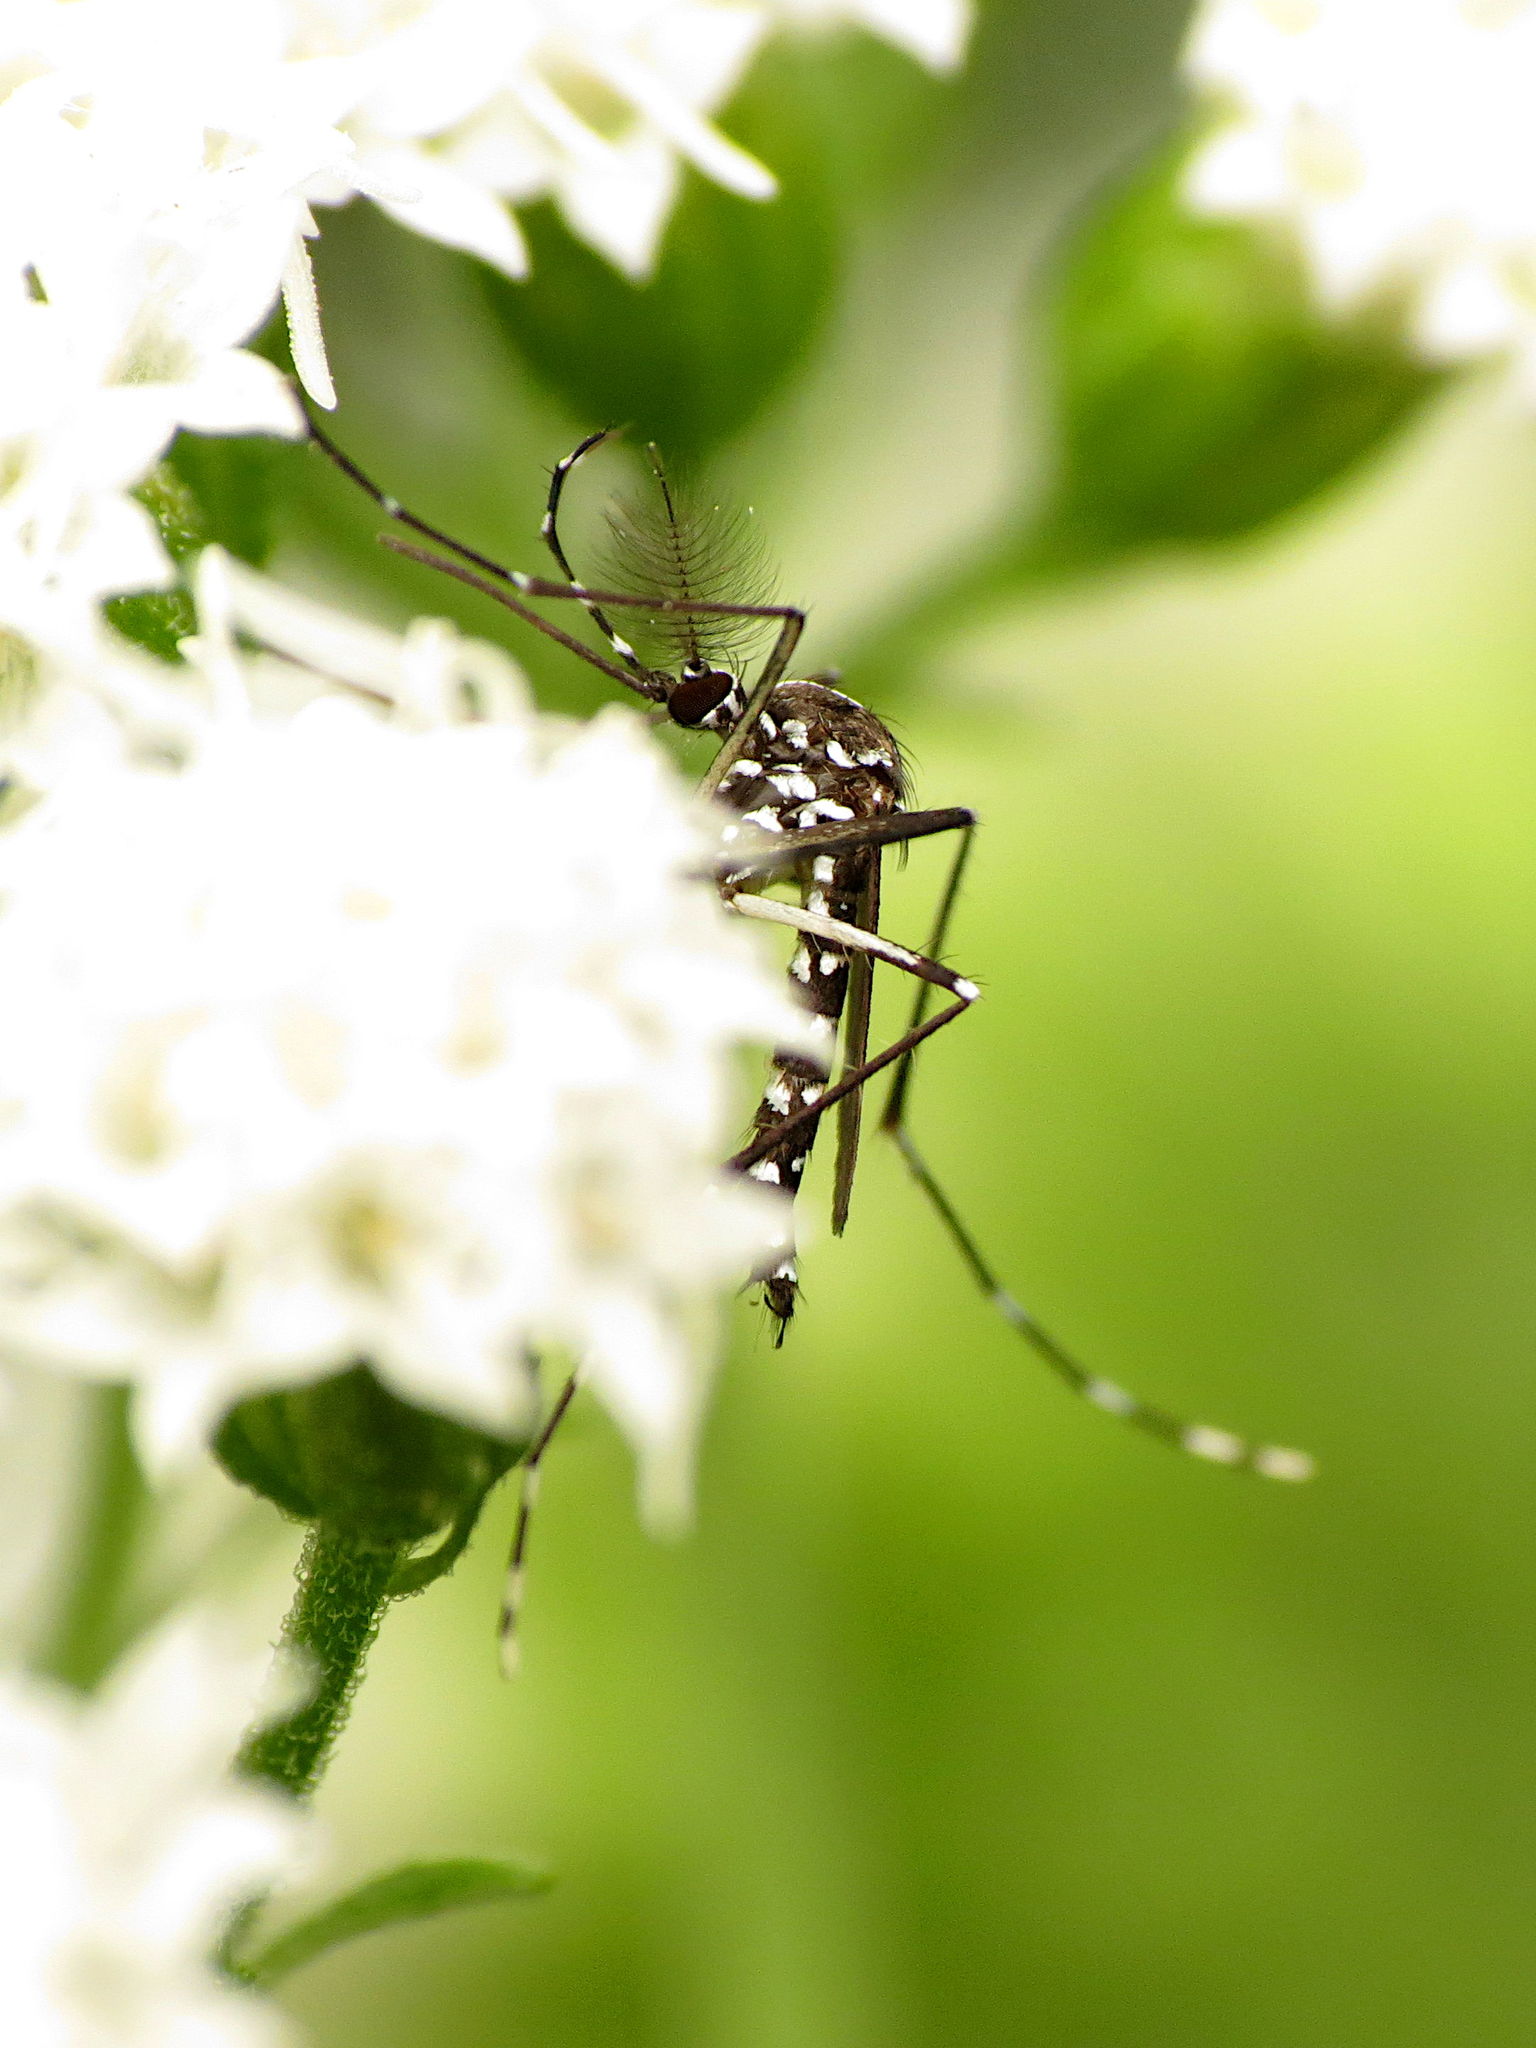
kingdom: Animalia
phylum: Arthropoda
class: Insecta
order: Diptera
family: Culicidae
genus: Aedes
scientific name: Aedes albopictus
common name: Tiger mosquito
